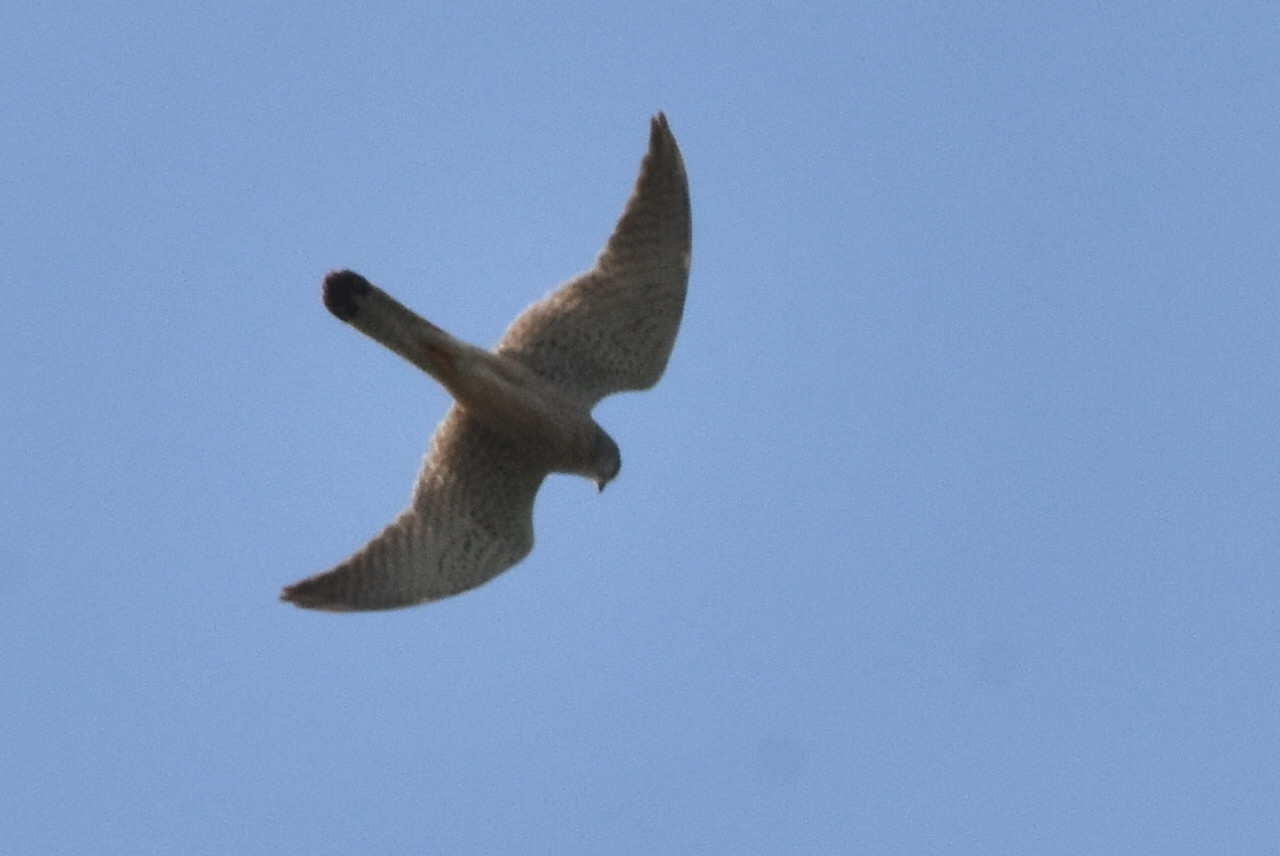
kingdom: Animalia
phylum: Chordata
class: Aves
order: Falconiformes
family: Falconidae
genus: Falco
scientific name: Falco tinnunculus
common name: Common kestrel
